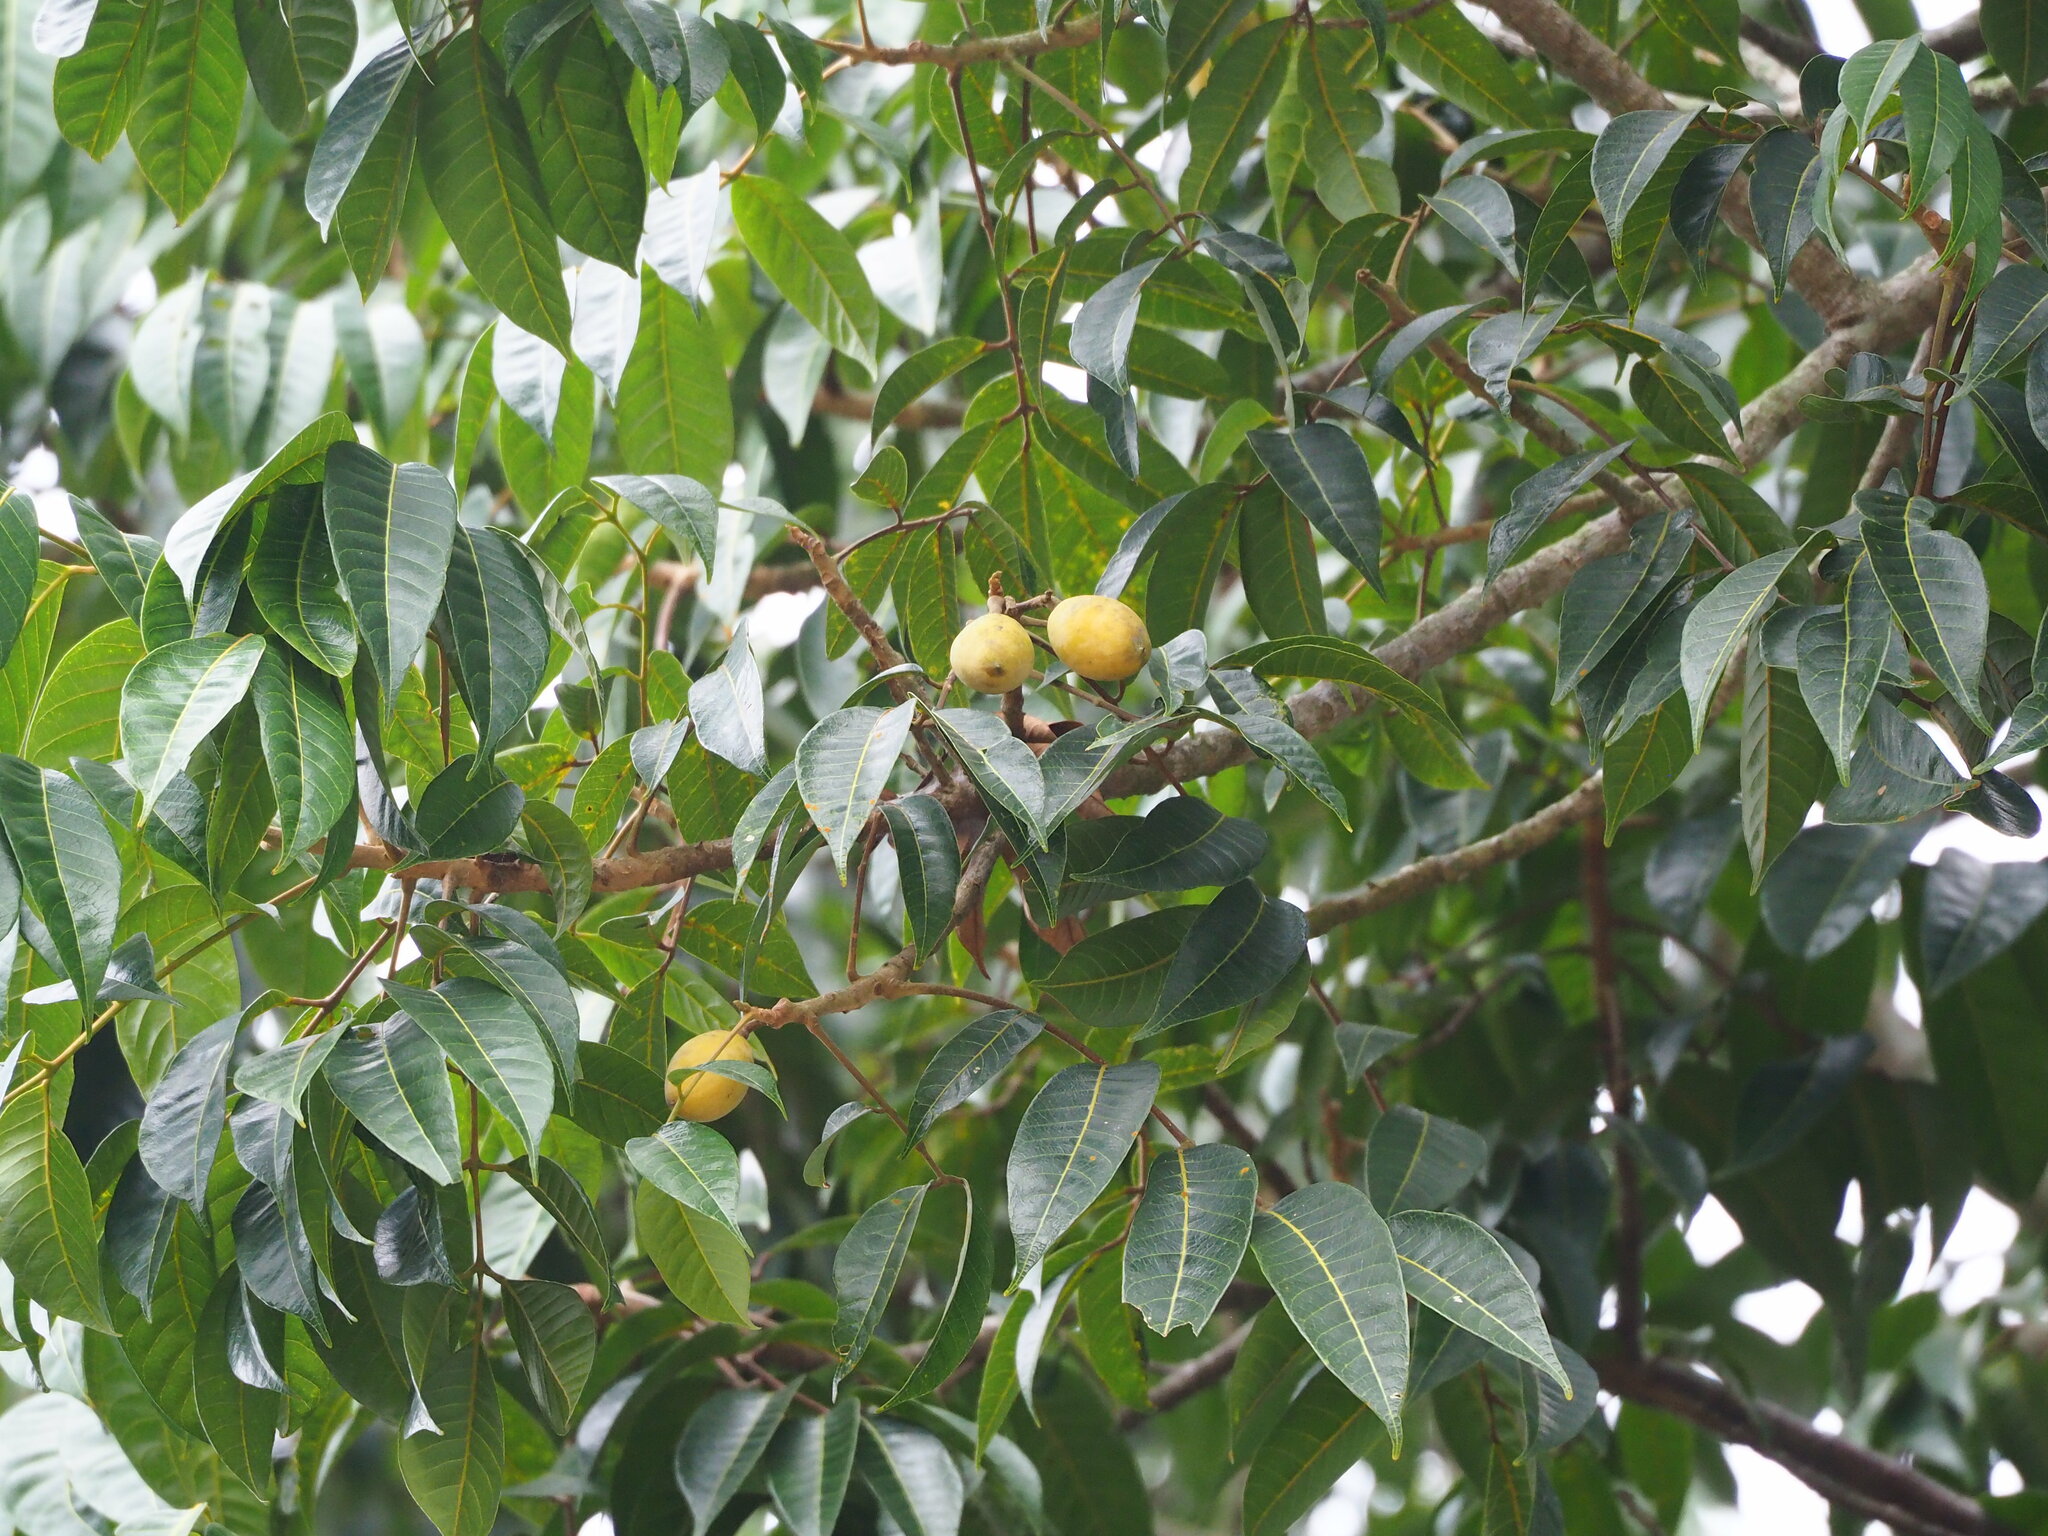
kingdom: Plantae
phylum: Tracheophyta
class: Magnoliopsida
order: Sapindales
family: Burseraceae
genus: Canarium
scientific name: Canarium subulatum
